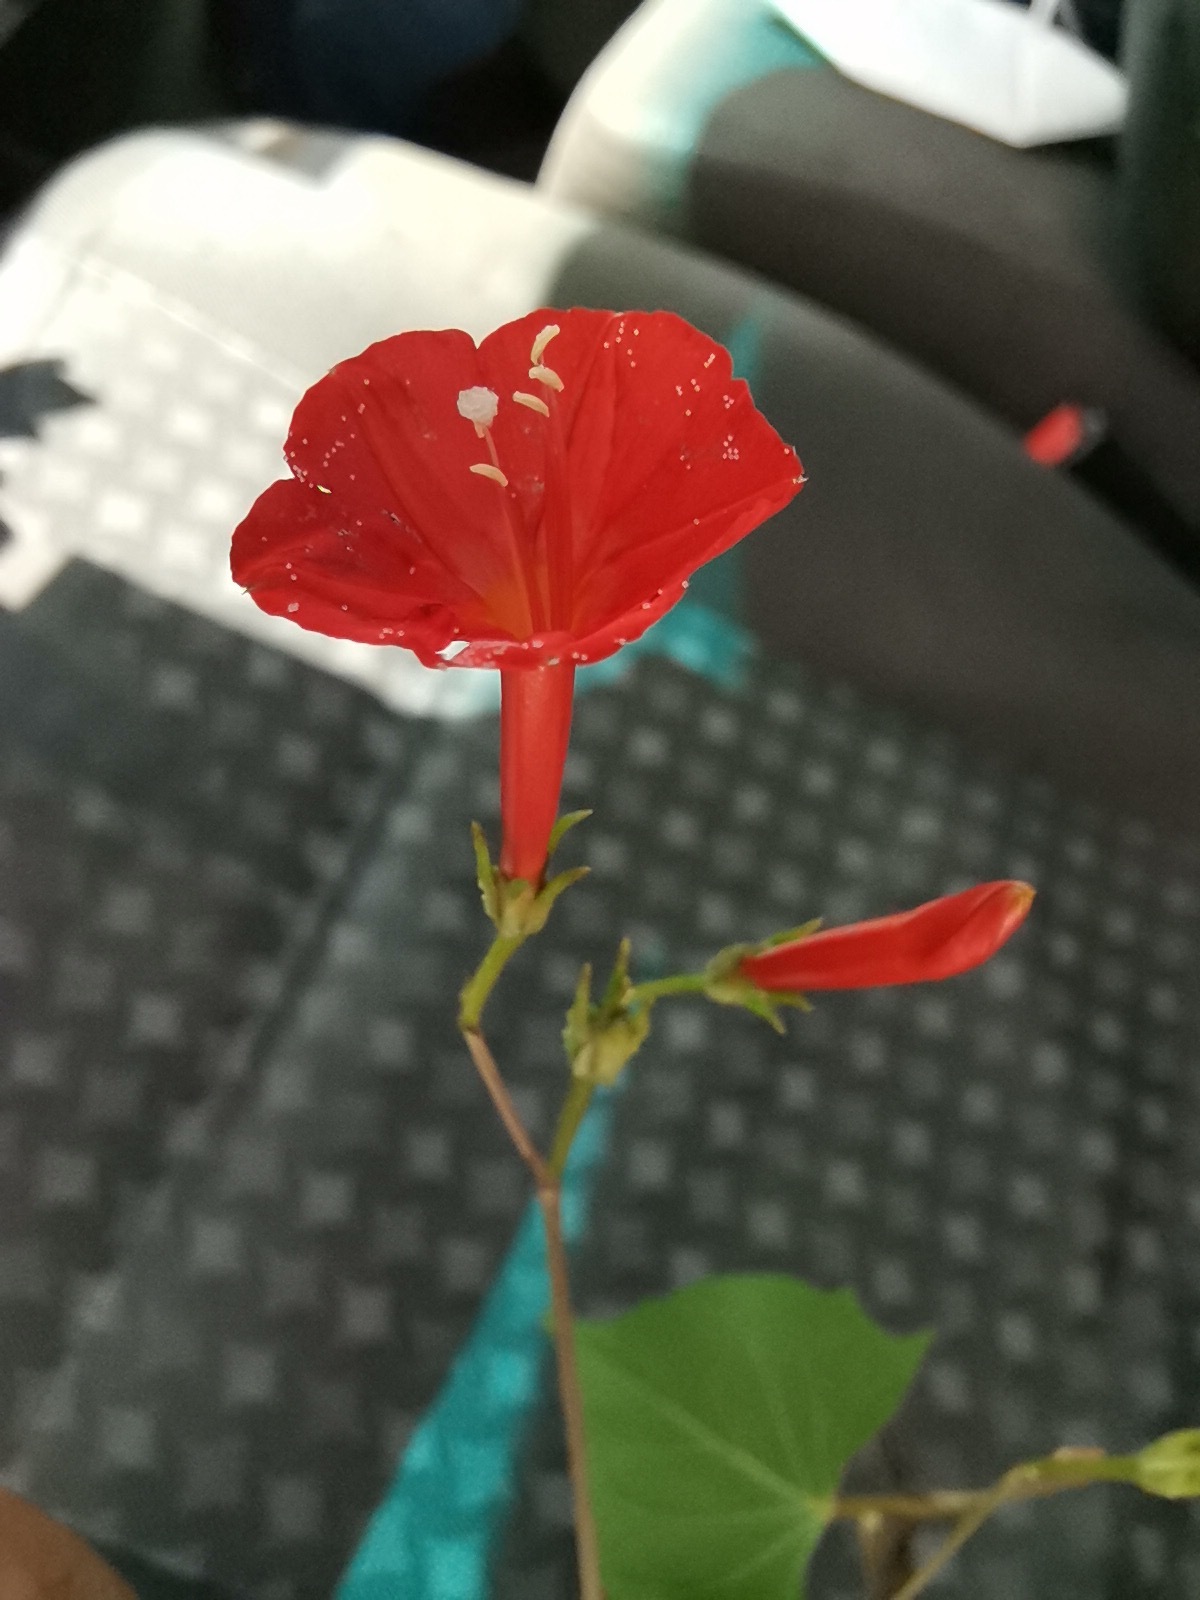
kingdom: Plantae
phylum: Tracheophyta
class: Magnoliopsida
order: Solanales
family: Convolvulaceae
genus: Ipomoea
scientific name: Ipomoea cristulata
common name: Trans-pecos morning-glory
